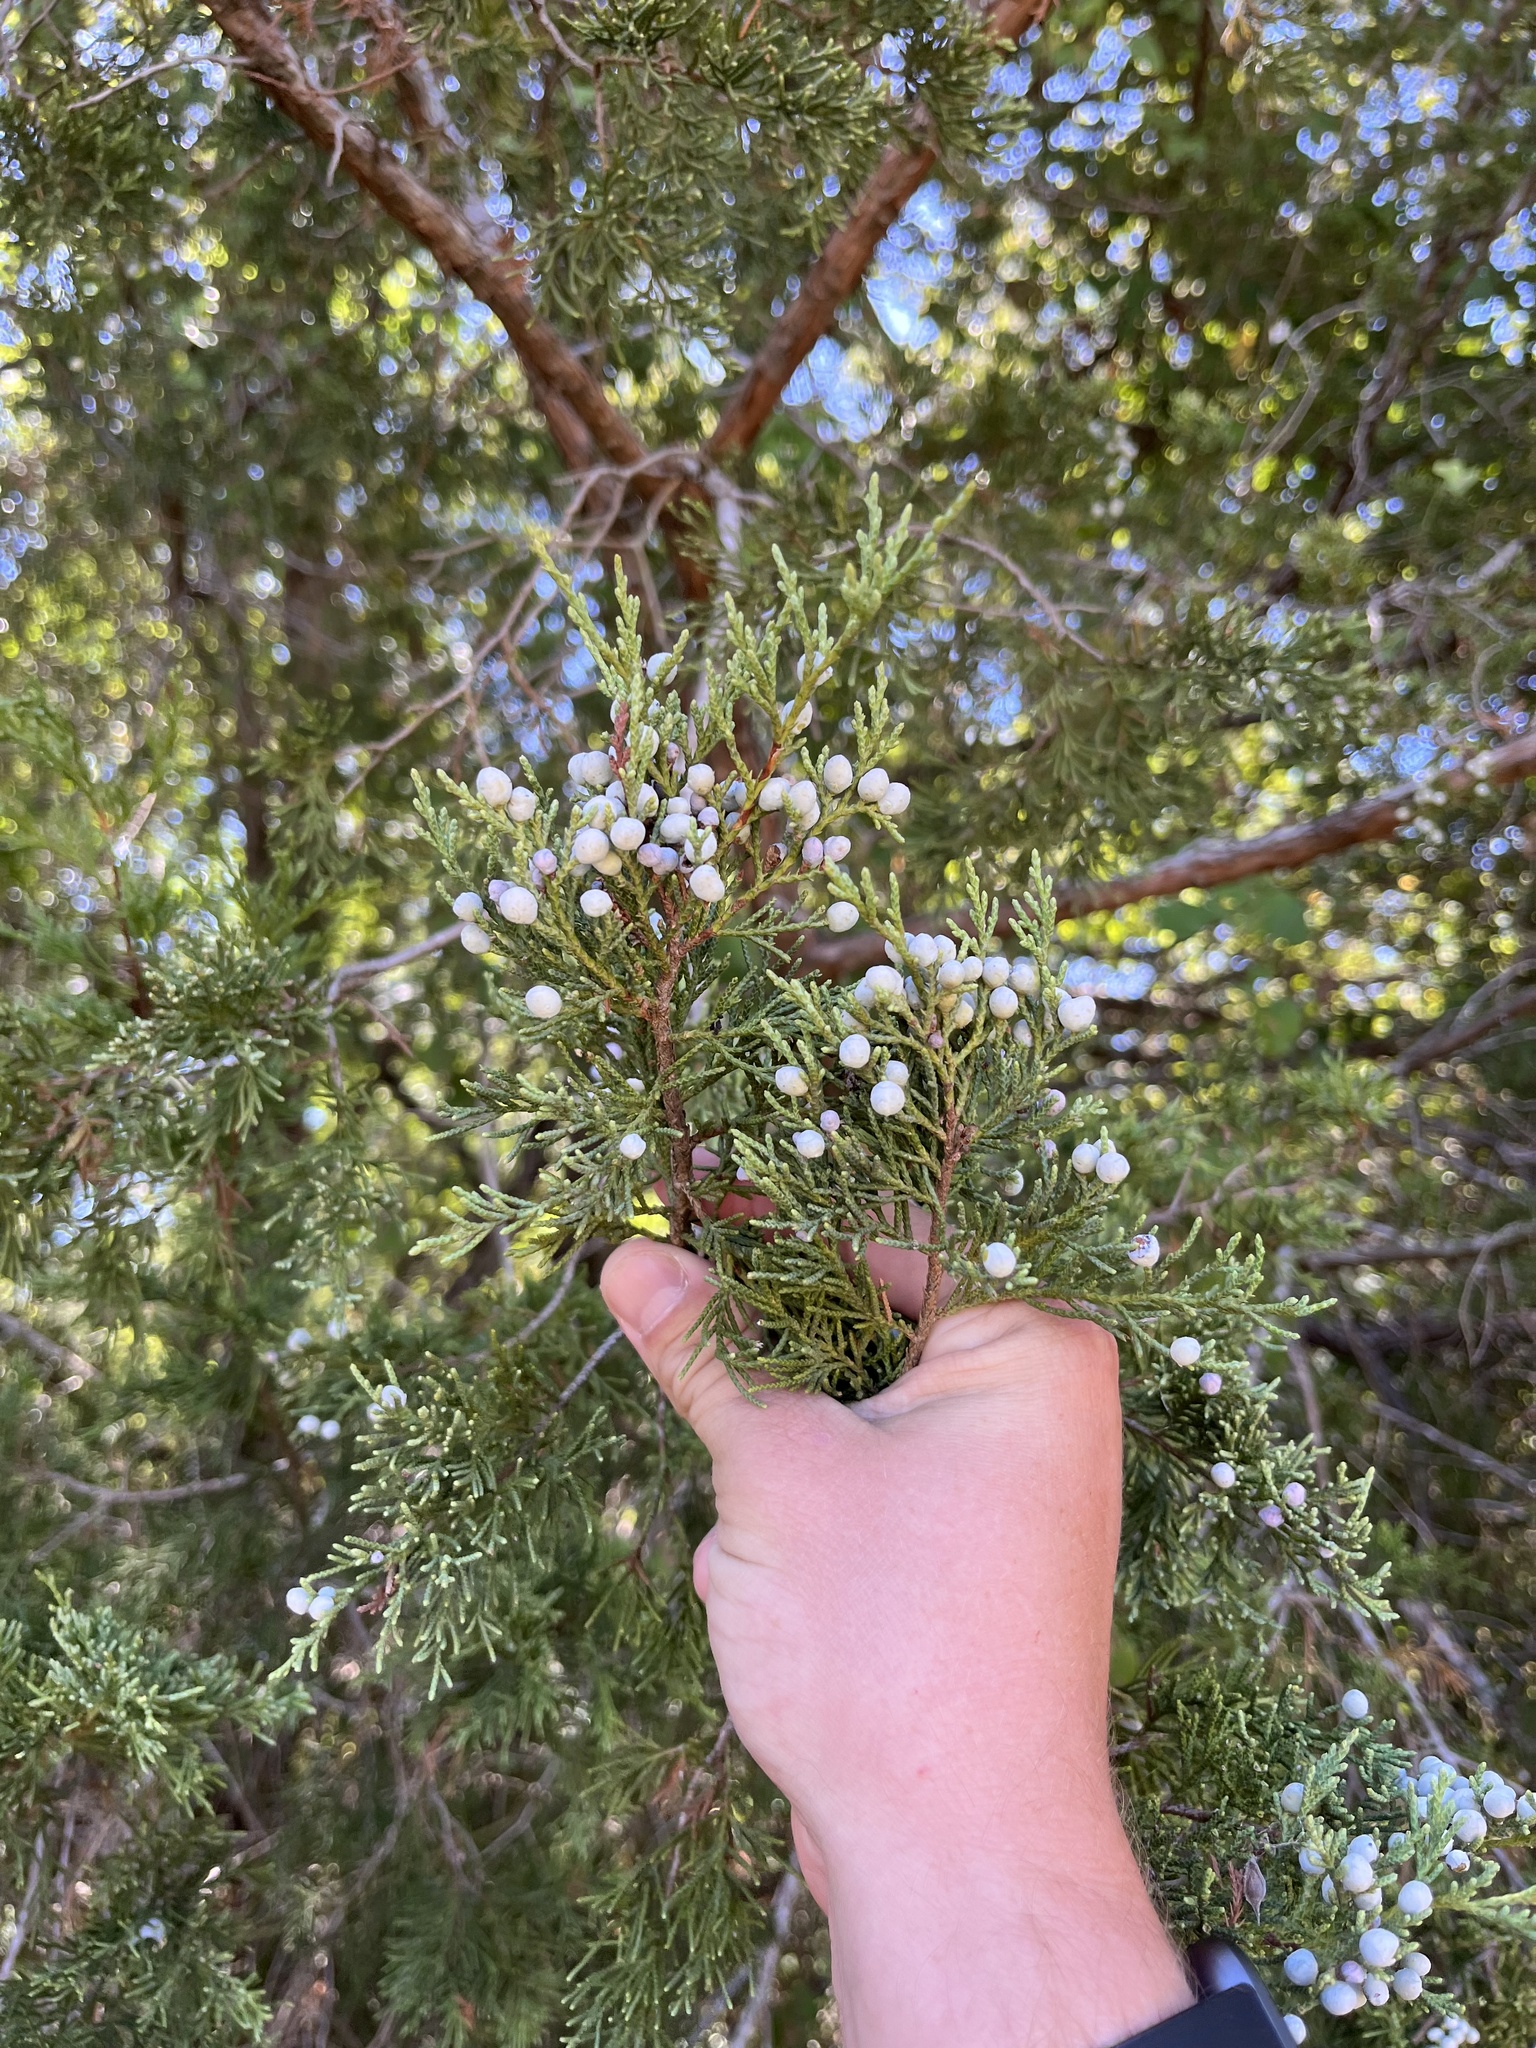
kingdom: Plantae
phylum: Tracheophyta
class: Pinopsida
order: Pinales
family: Cupressaceae
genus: Juniperus
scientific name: Juniperus virginiana
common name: Red juniper
